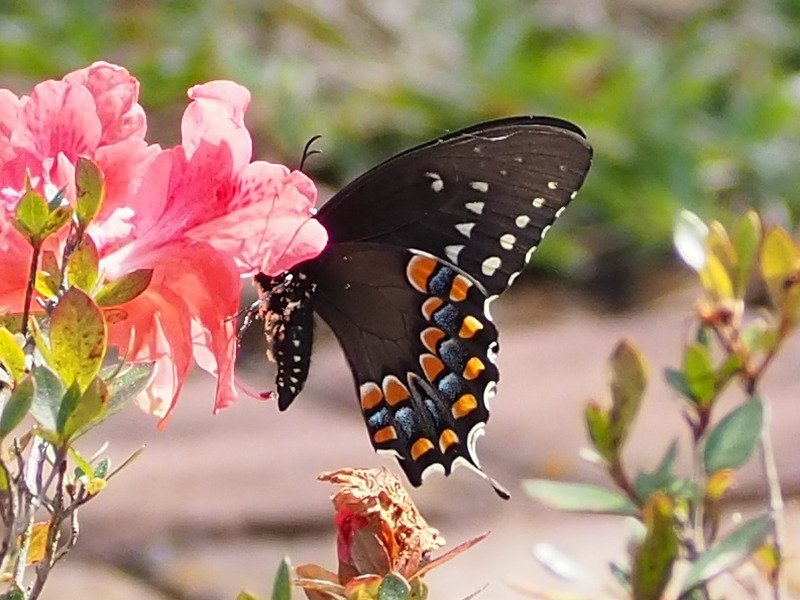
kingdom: Animalia
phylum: Arthropoda
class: Insecta
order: Lepidoptera
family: Papilionidae
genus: Papilio
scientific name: Papilio troilus
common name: Spicebush swallowtail
